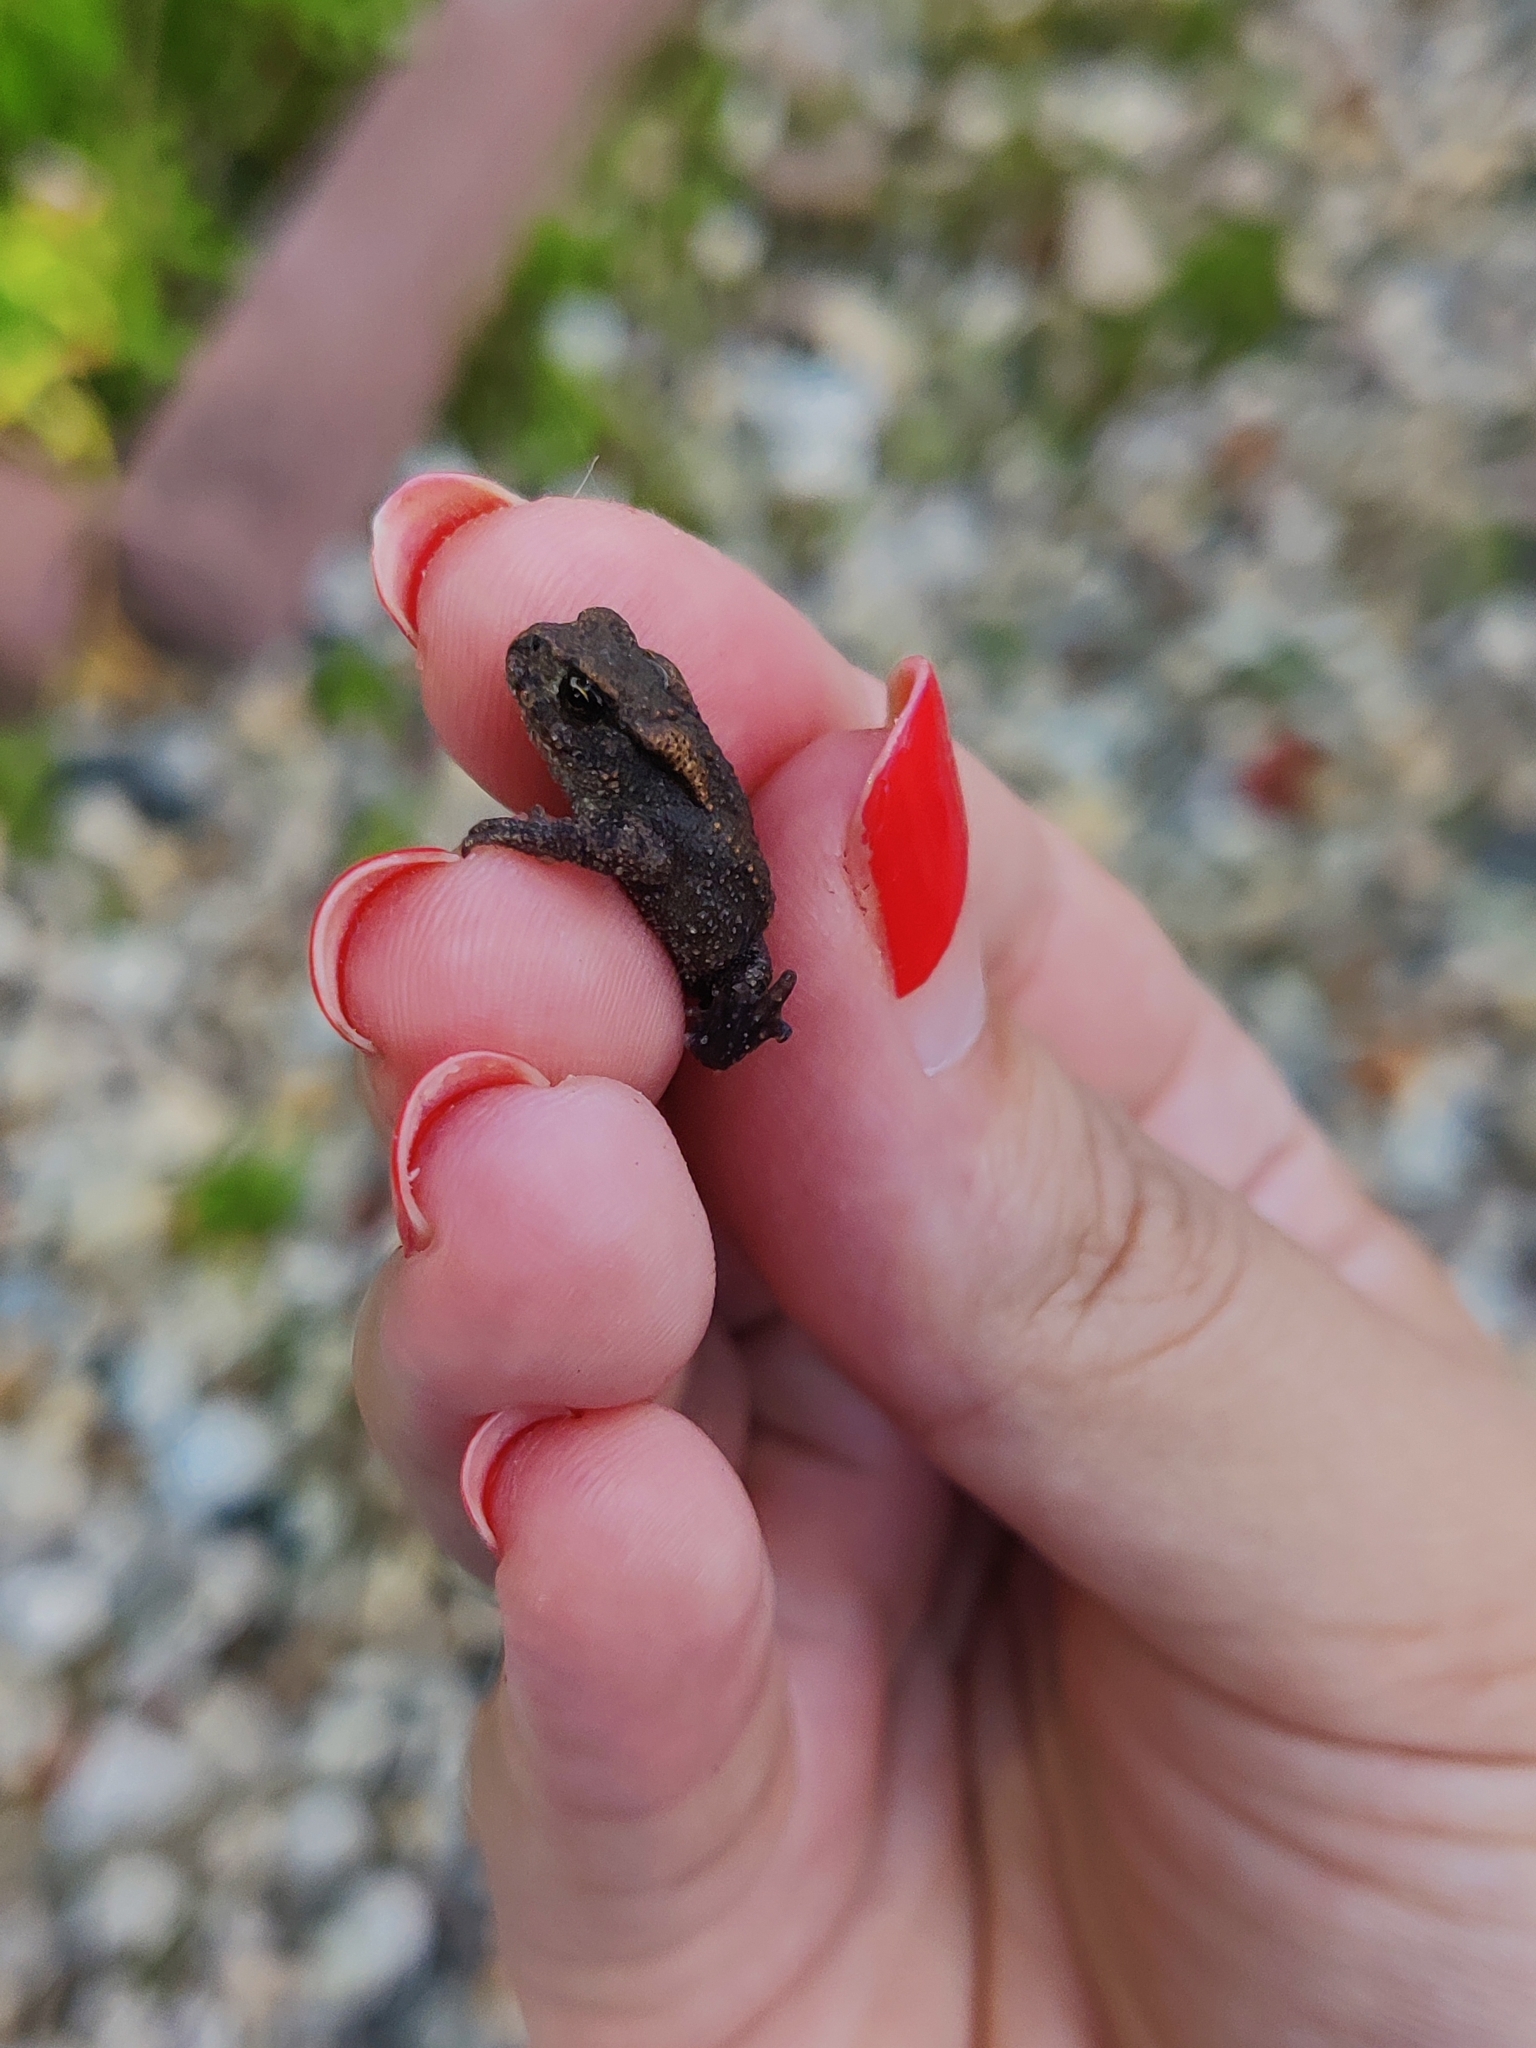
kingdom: Animalia
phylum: Chordata
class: Amphibia
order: Anura
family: Bufonidae
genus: Bufo
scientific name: Bufo bufo
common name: Common toad
